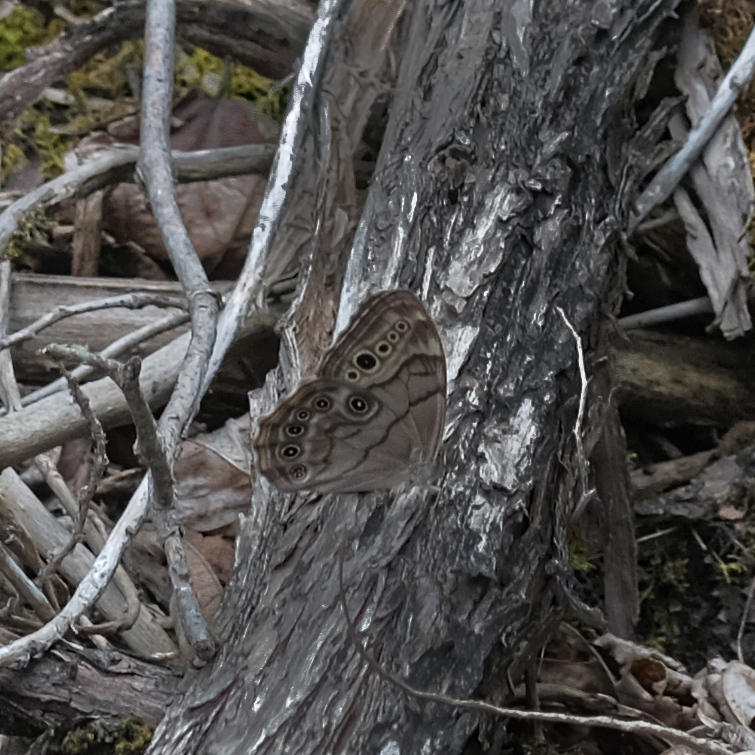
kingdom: Animalia
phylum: Arthropoda
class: Insecta
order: Lepidoptera
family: Nymphalidae
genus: Lethe
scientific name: Lethe anthedon
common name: Northern pearly-eye
